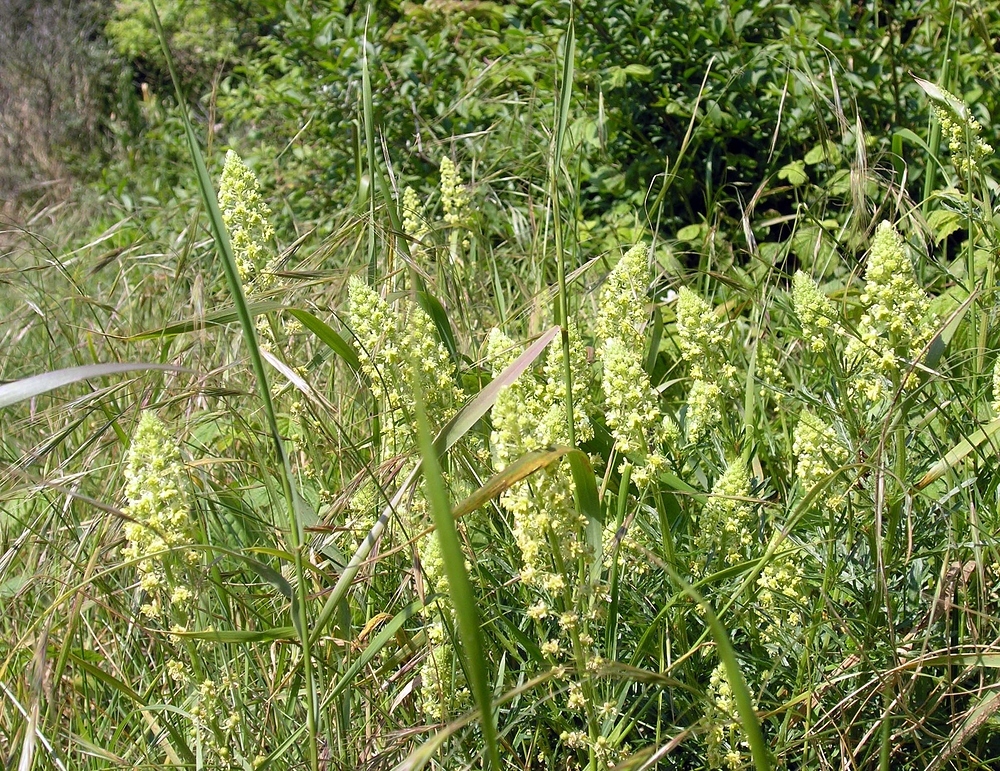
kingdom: Plantae
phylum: Tracheophyta
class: Magnoliopsida
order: Brassicales
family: Resedaceae
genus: Reseda
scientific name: Reseda lutea
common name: Wild mignonette
